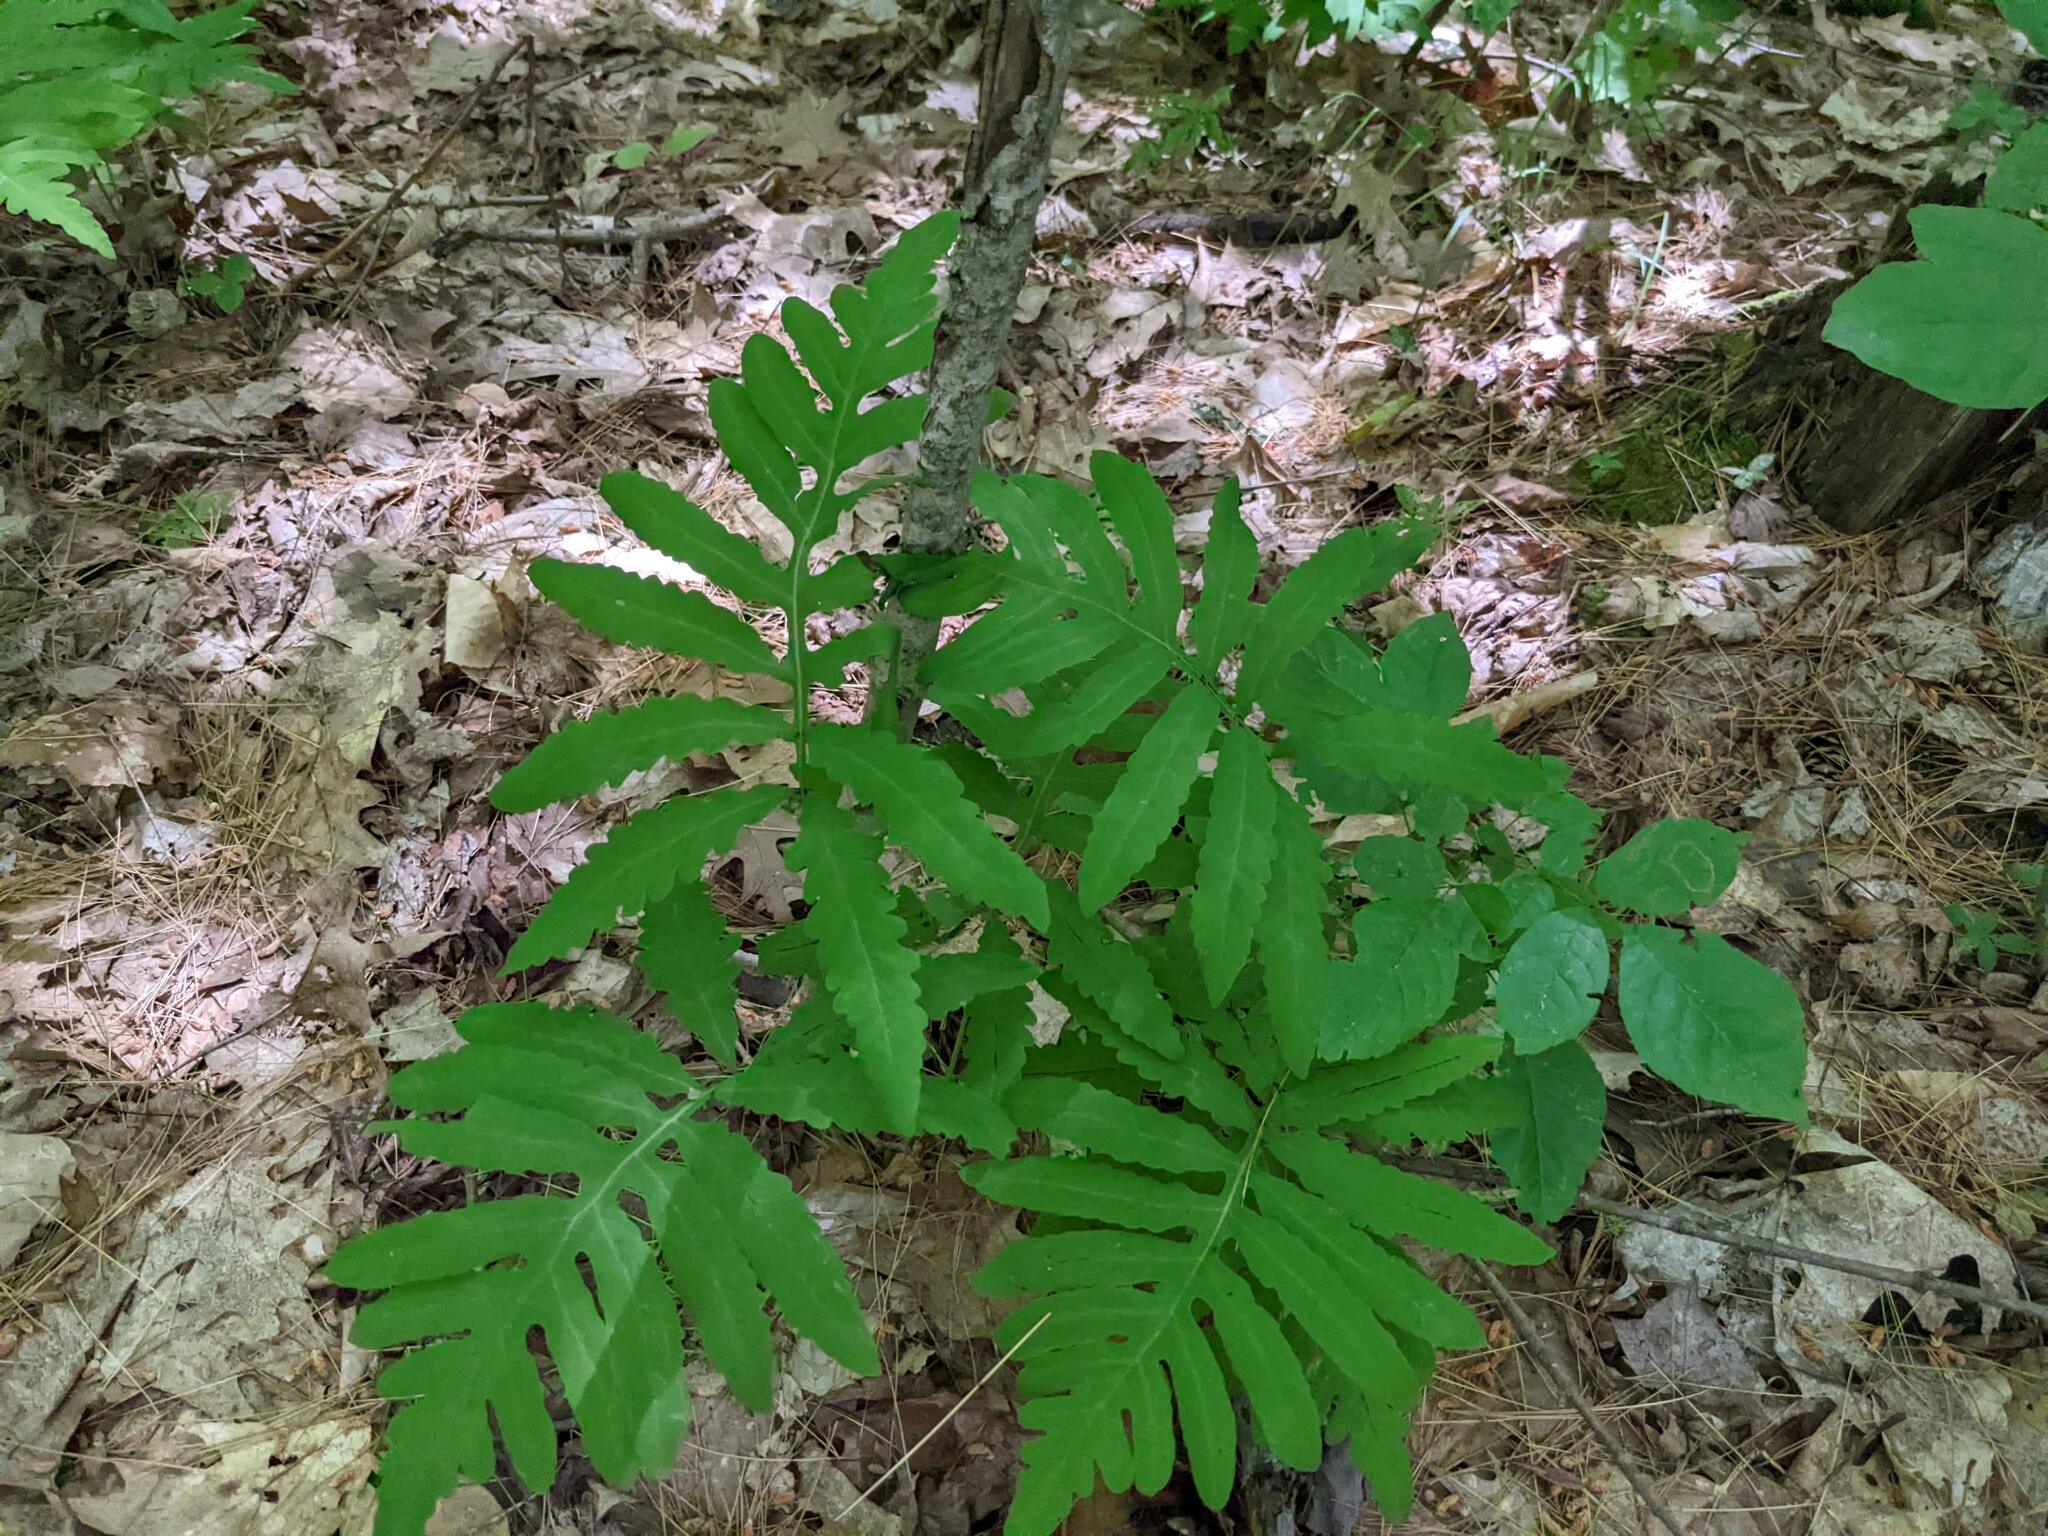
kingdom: Plantae
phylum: Tracheophyta
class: Polypodiopsida
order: Polypodiales
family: Onocleaceae
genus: Onoclea
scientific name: Onoclea sensibilis
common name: Sensitive fern
